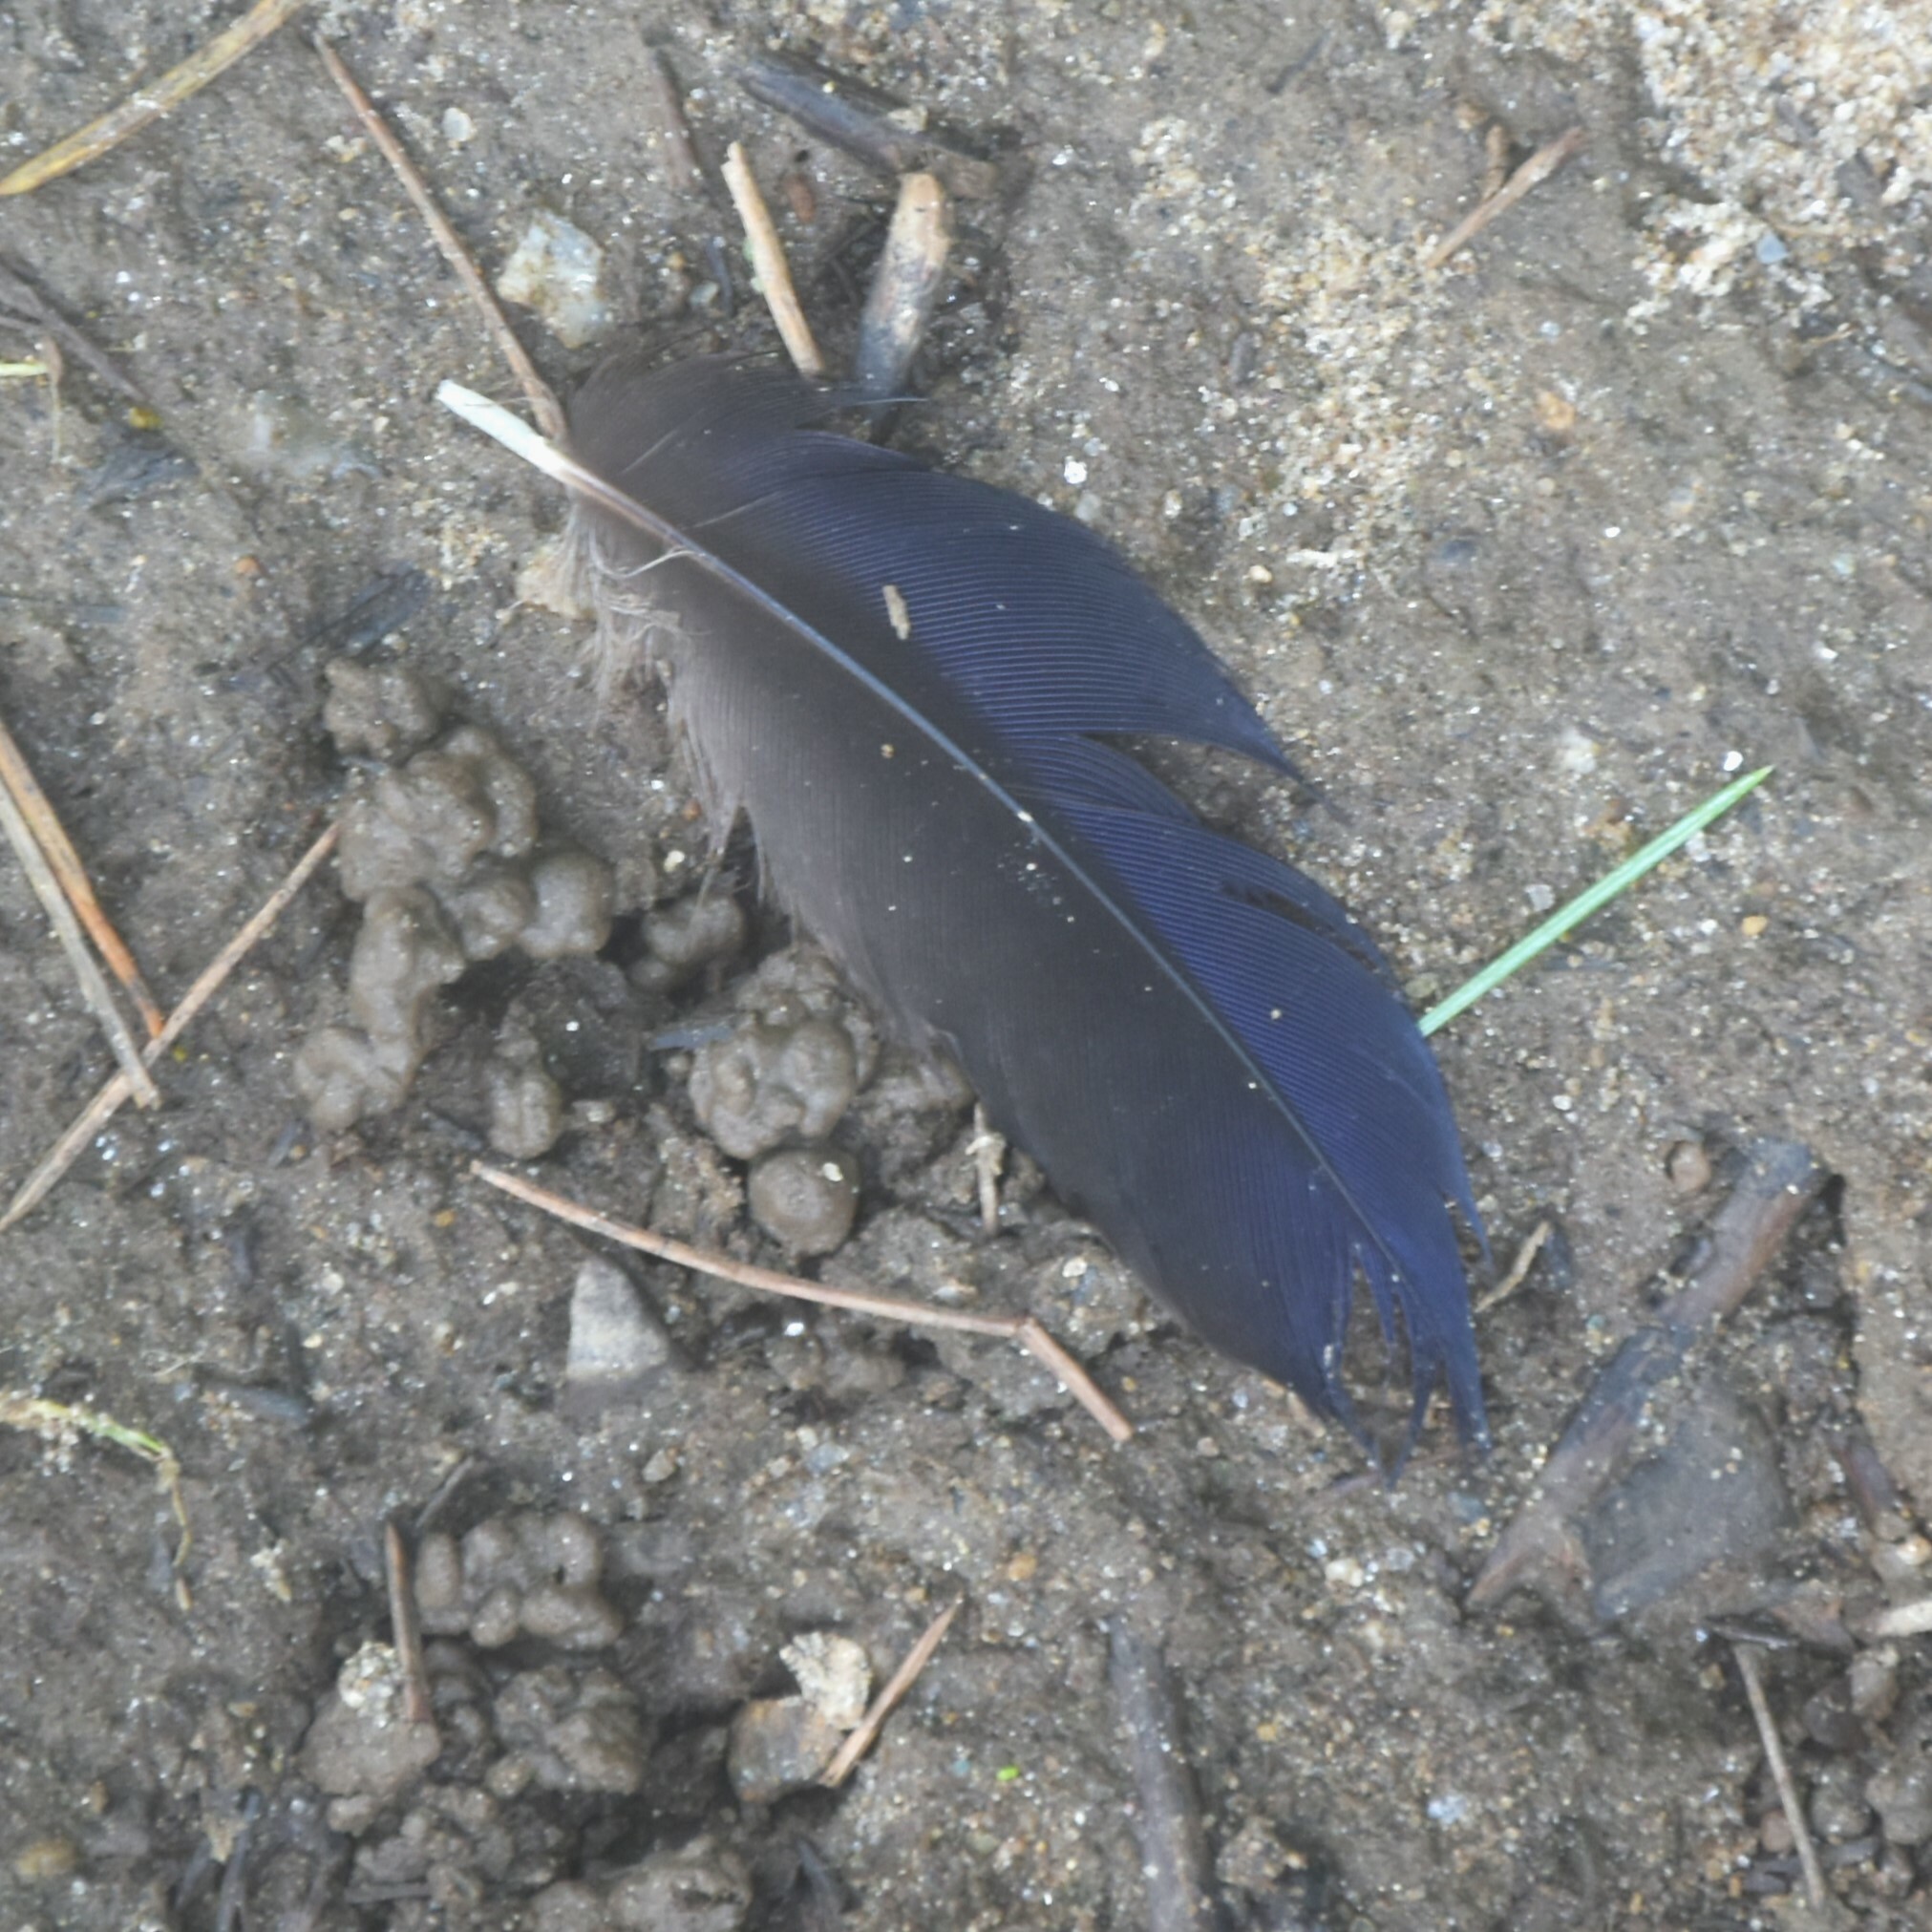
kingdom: Animalia
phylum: Chordata
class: Aves
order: Passeriformes
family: Muscicapidae
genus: Myophonus
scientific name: Myophonus caeruleus
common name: Blue whistling-thrush
